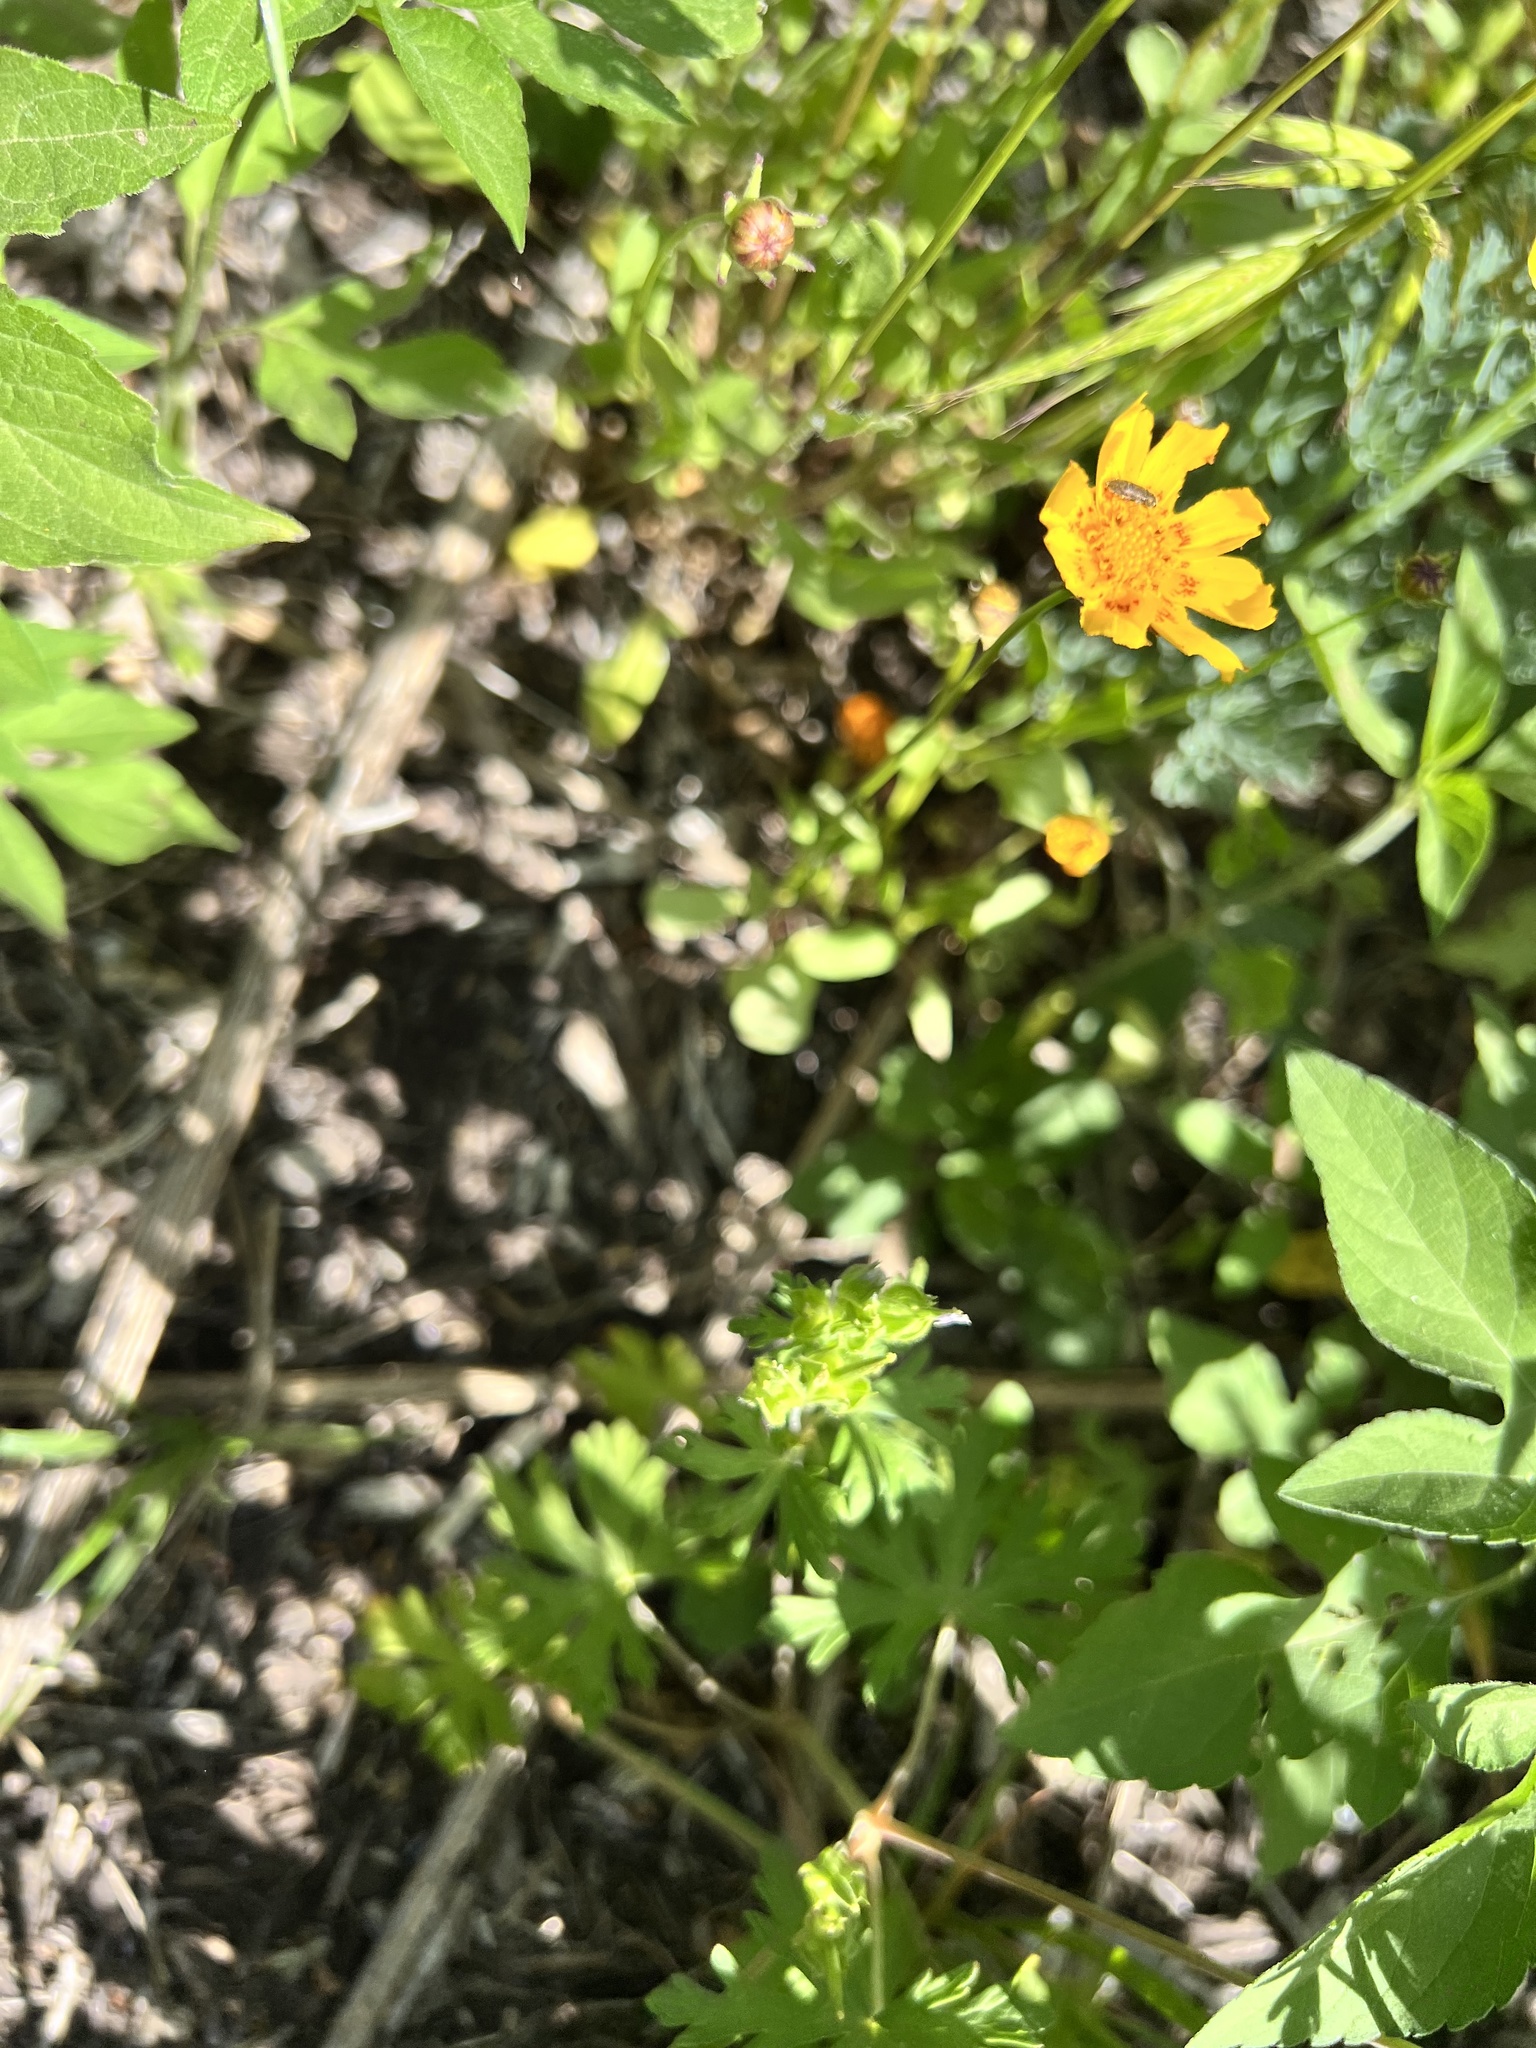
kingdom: Plantae
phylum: Tracheophyta
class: Magnoliopsida
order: Asterales
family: Asteraceae
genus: Coreopsis
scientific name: Coreopsis nuecensis
